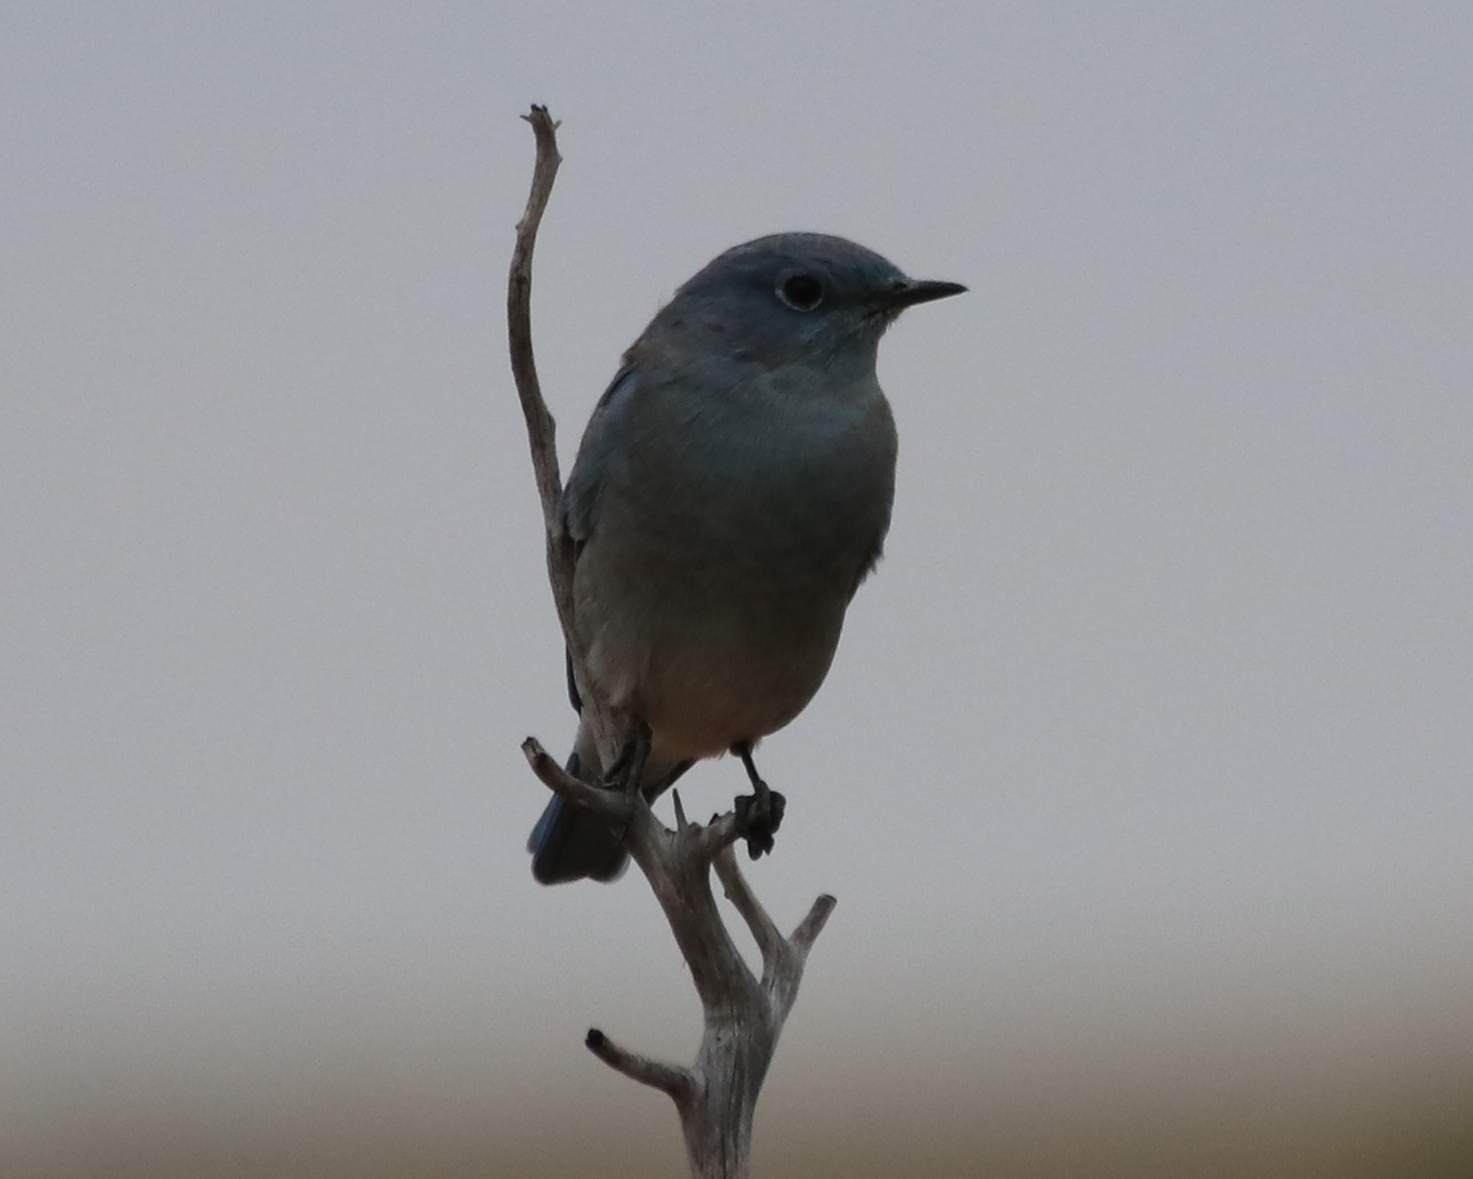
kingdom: Animalia
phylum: Chordata
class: Aves
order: Passeriformes
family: Turdidae
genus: Sialia
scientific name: Sialia currucoides
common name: Mountain bluebird
